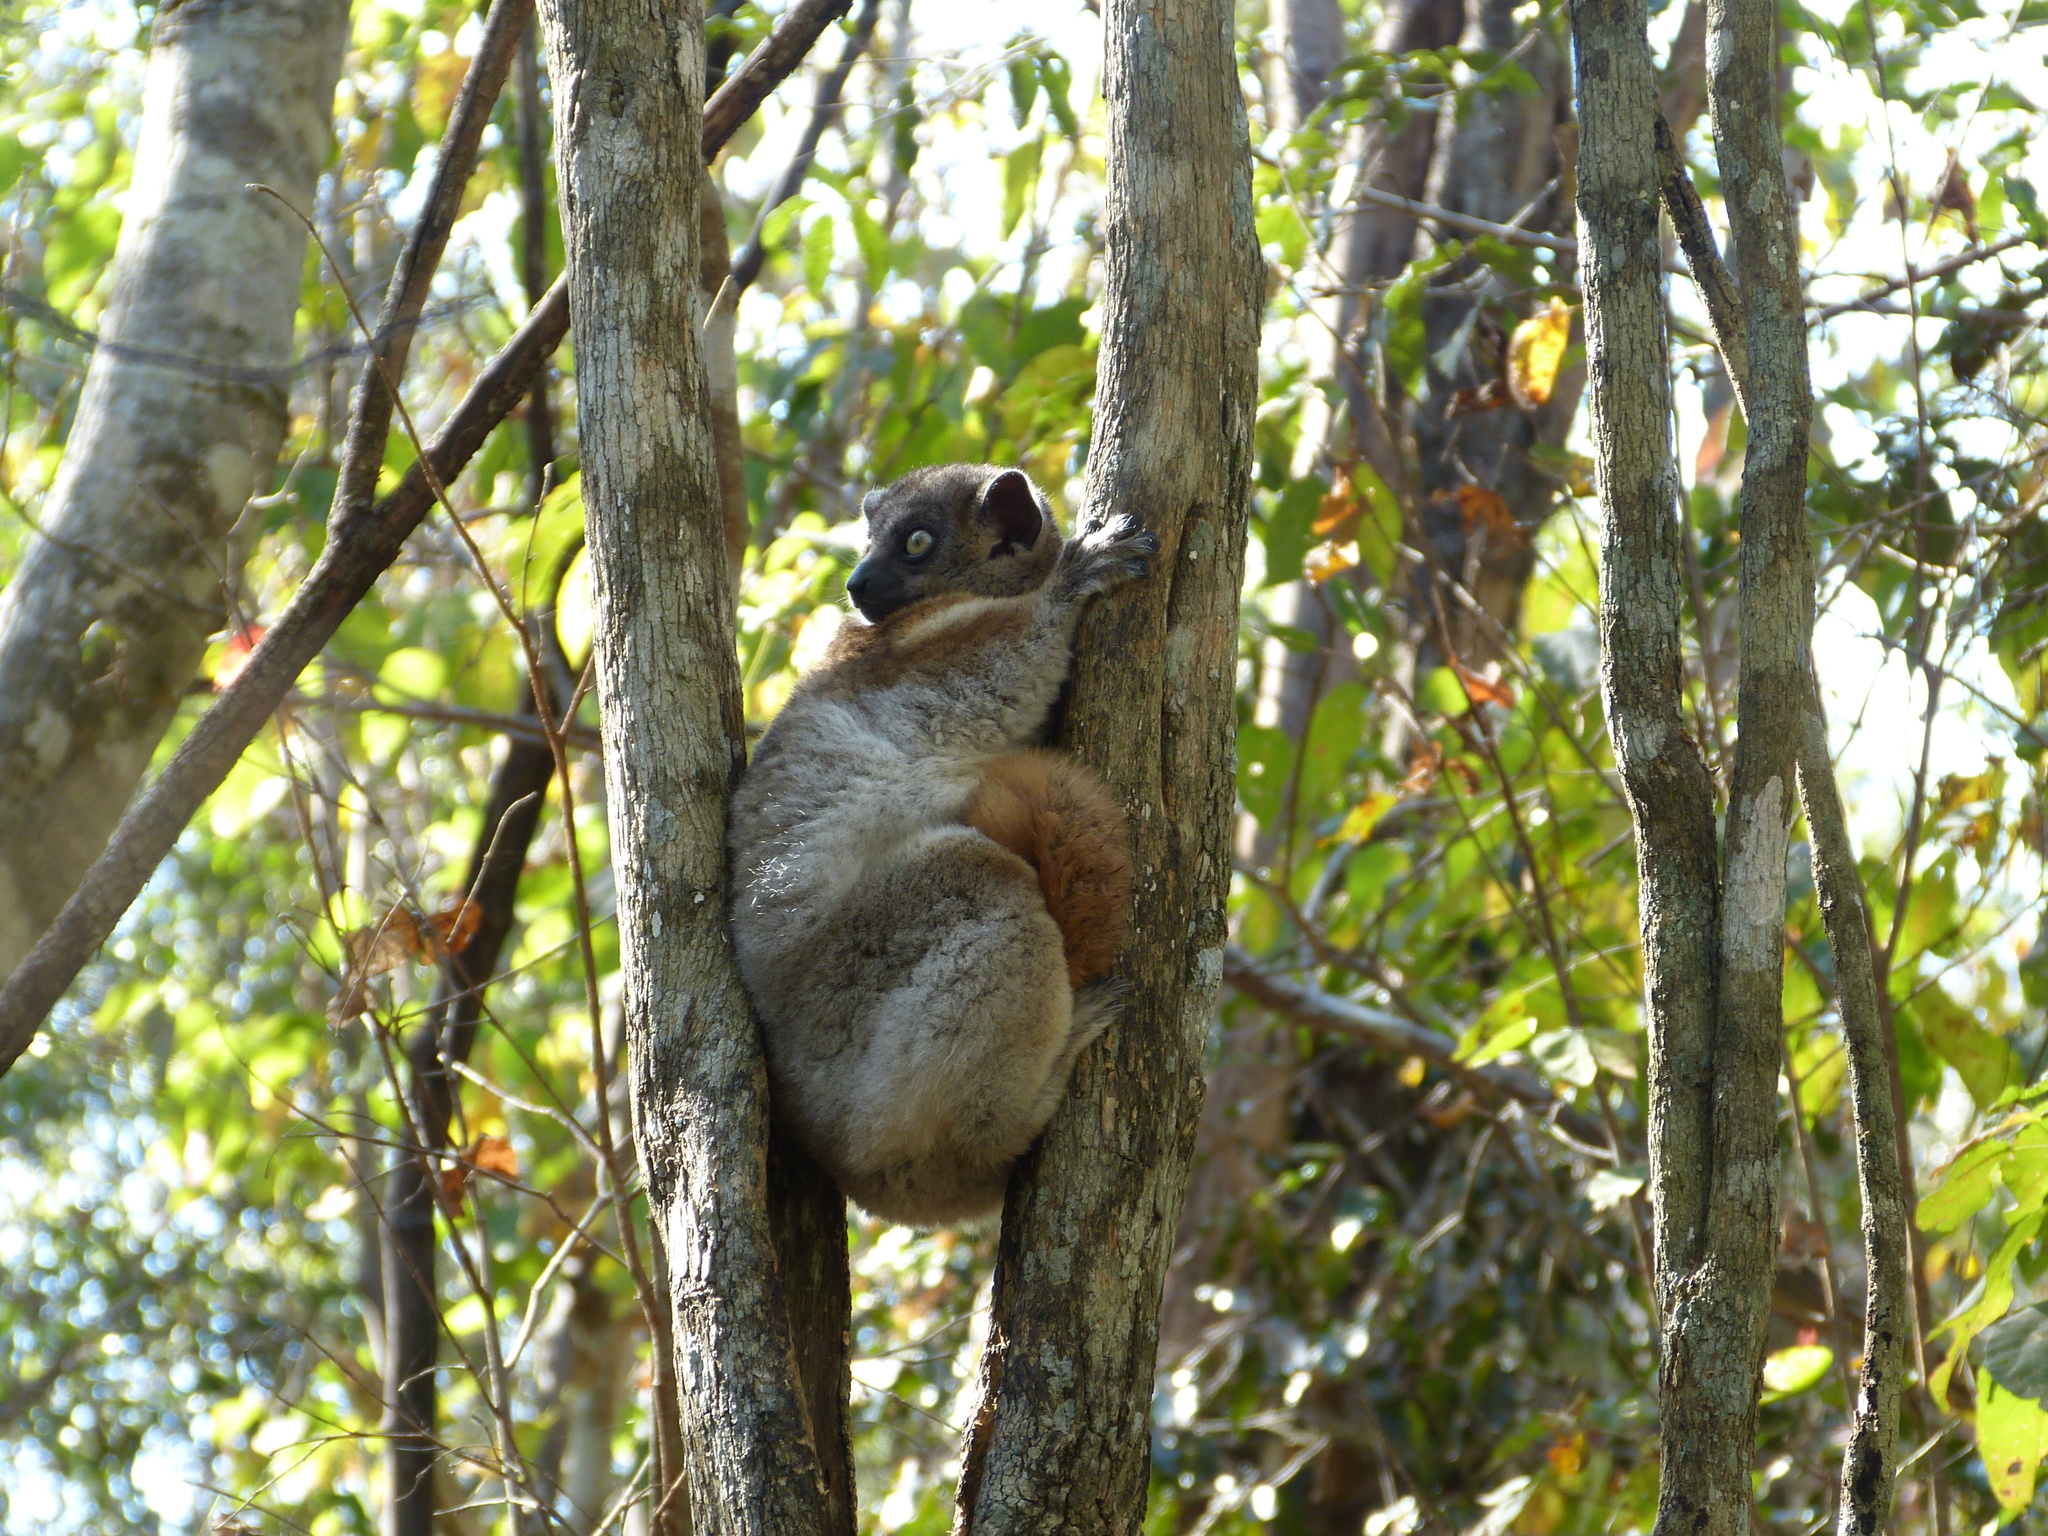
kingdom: Animalia
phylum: Chordata
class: Mammalia
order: Primates
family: Lepilemuridae
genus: Lepilemur
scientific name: Lepilemur hubbardi
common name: Zombitse sportive lemur
